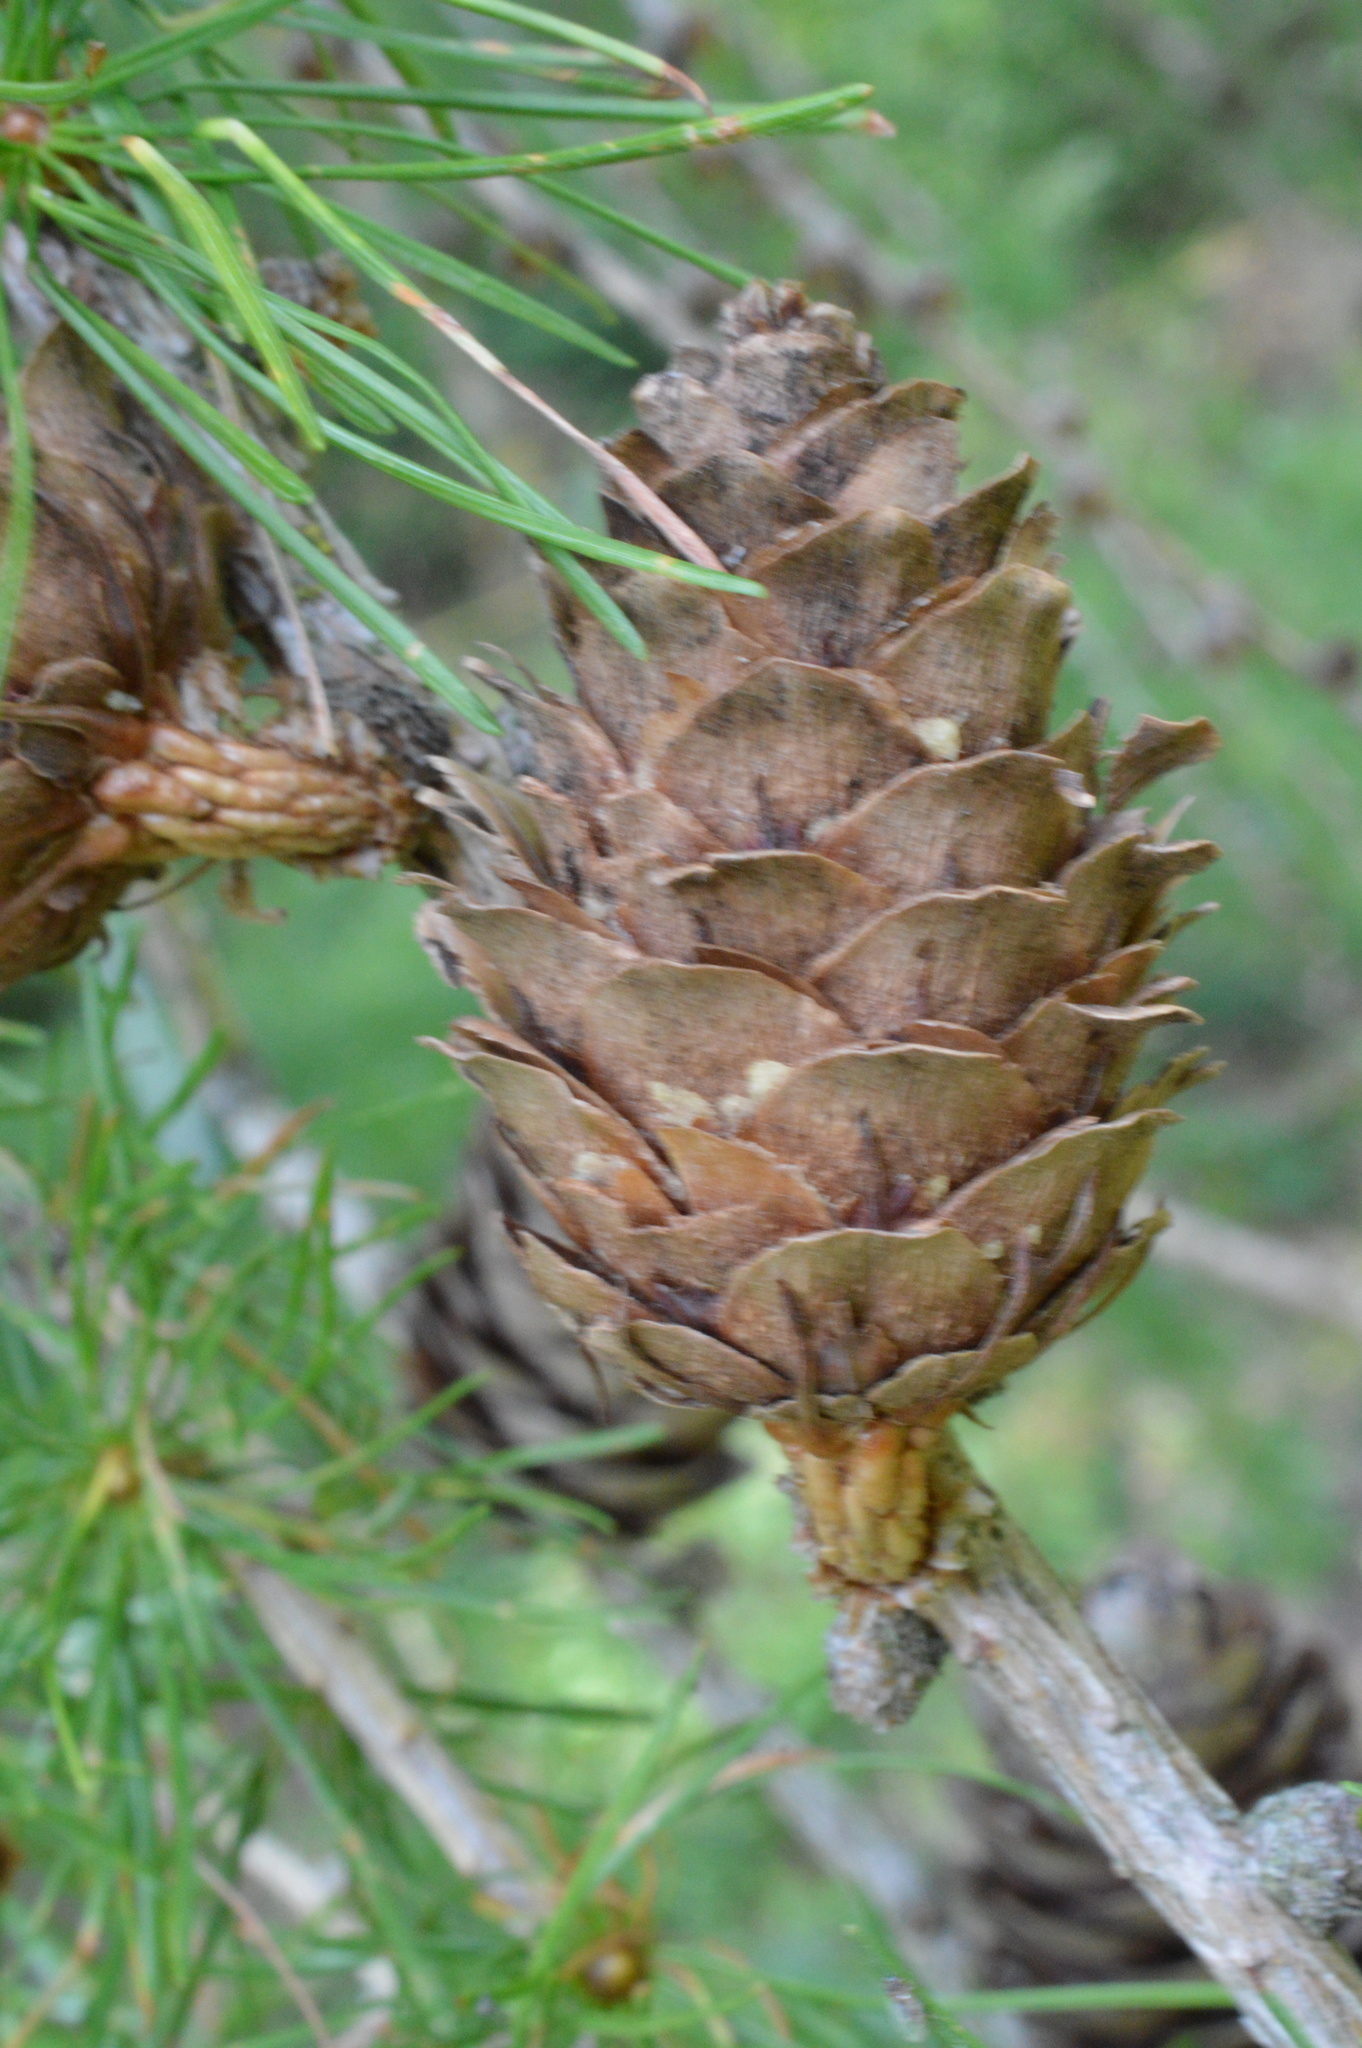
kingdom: Plantae
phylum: Tracheophyta
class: Pinopsida
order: Pinales
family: Pinaceae
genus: Larix
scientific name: Larix decidua
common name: European larch
